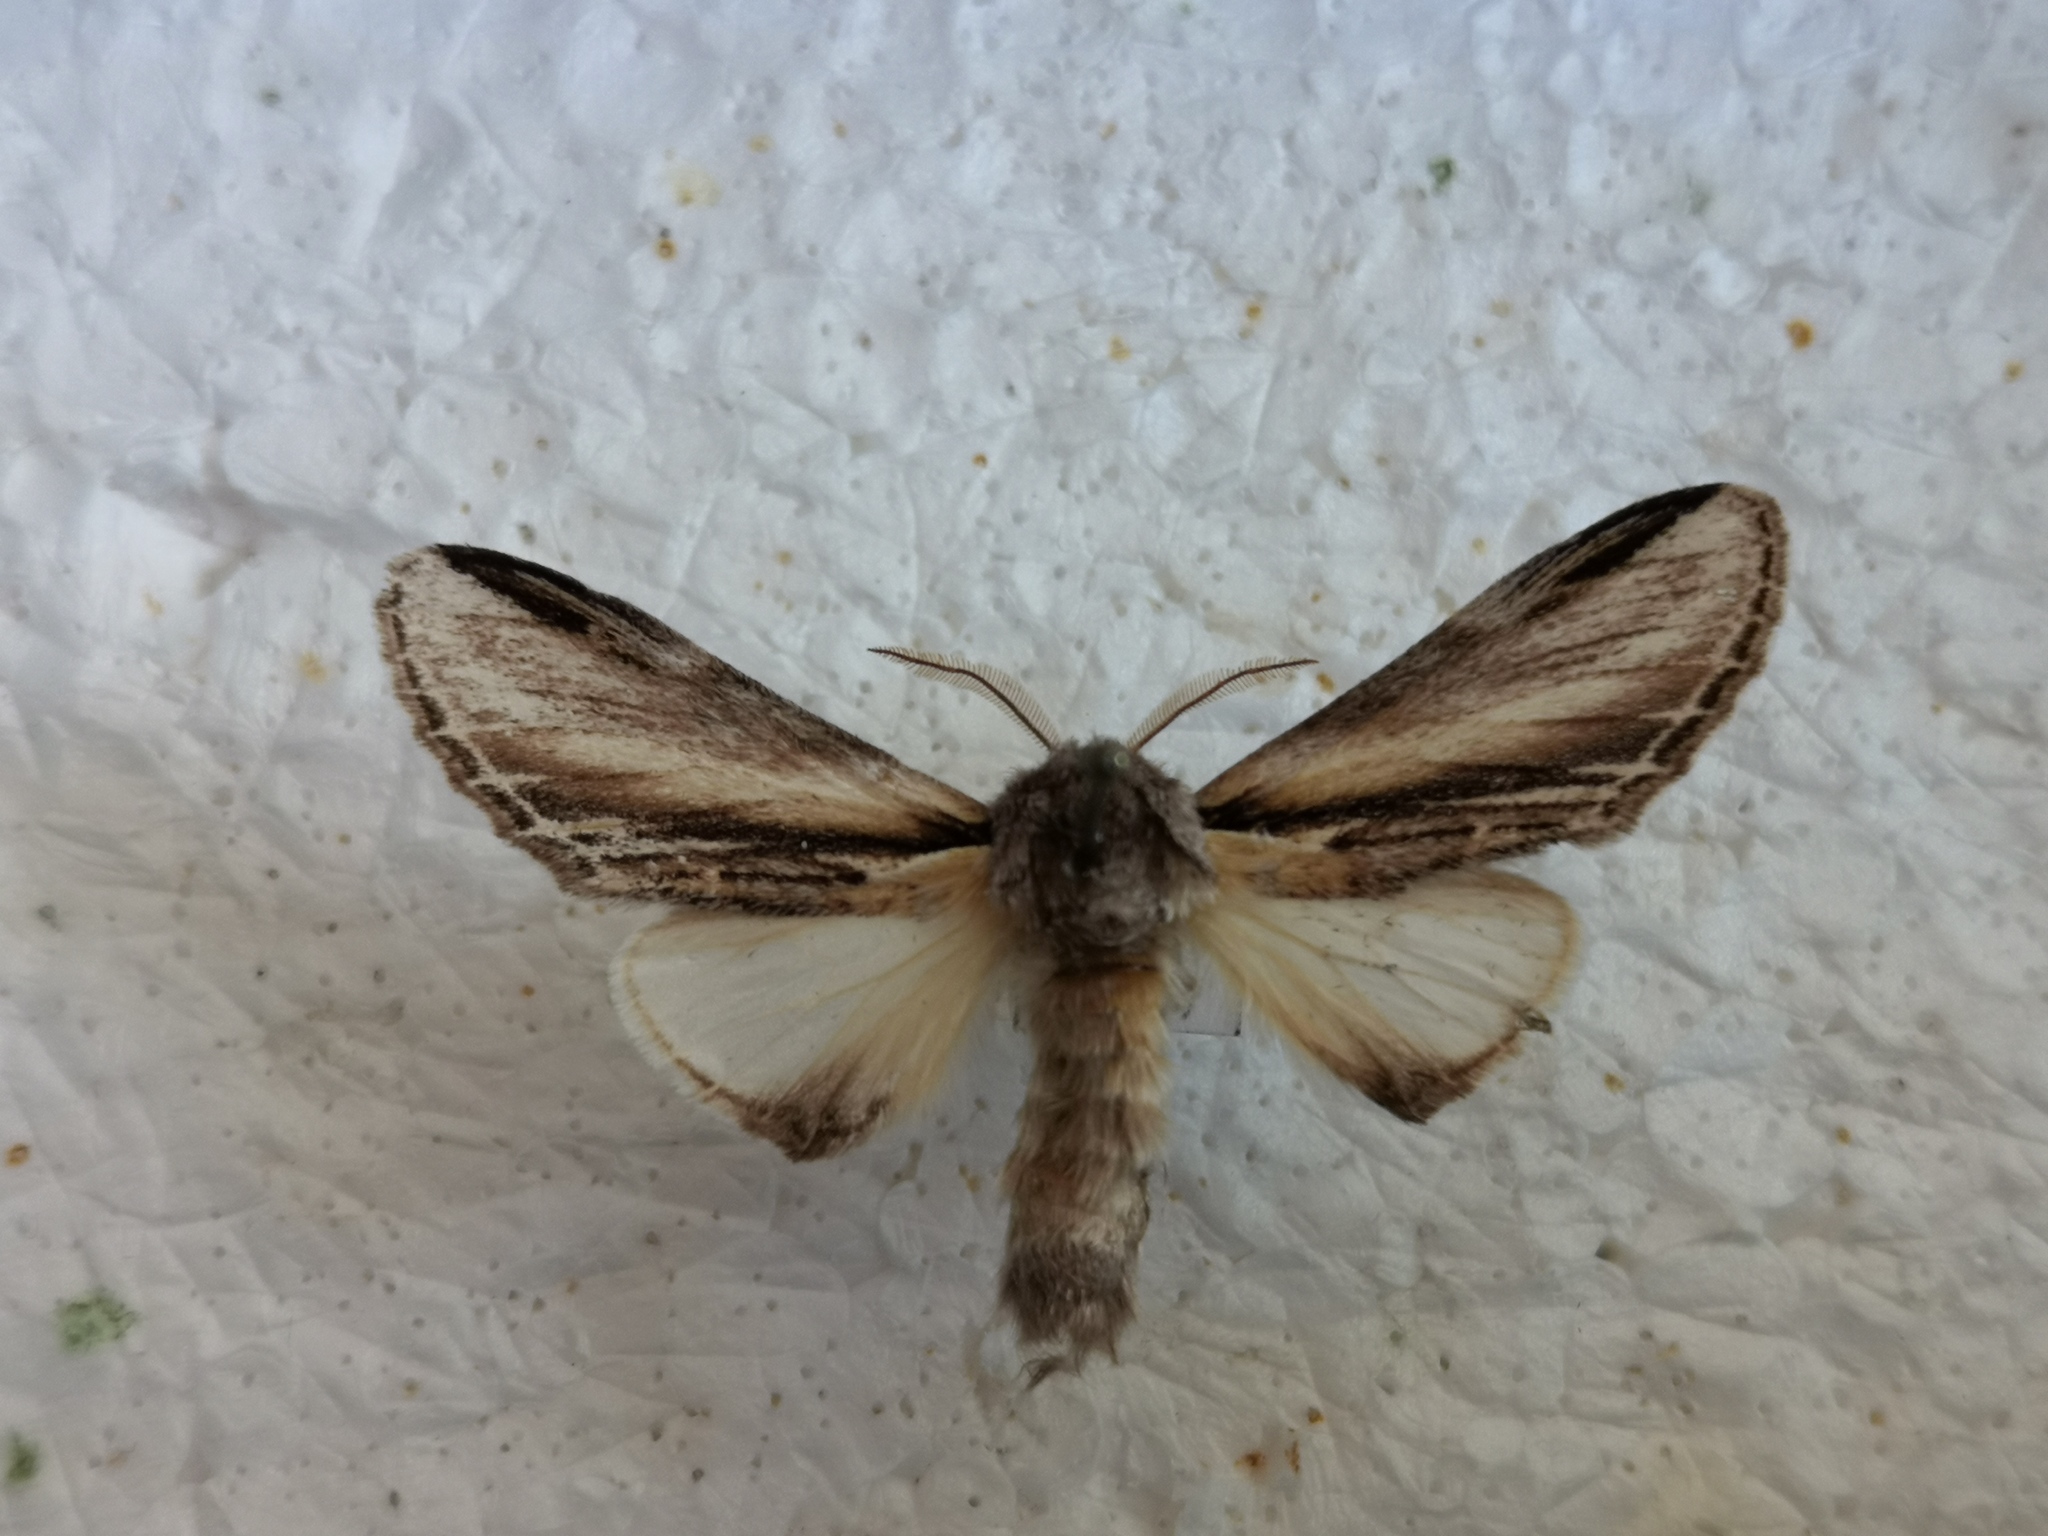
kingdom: Animalia
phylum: Arthropoda
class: Insecta
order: Lepidoptera
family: Notodontidae
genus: Pheosia
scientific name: Pheosia tremula
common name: Swallow prominent
